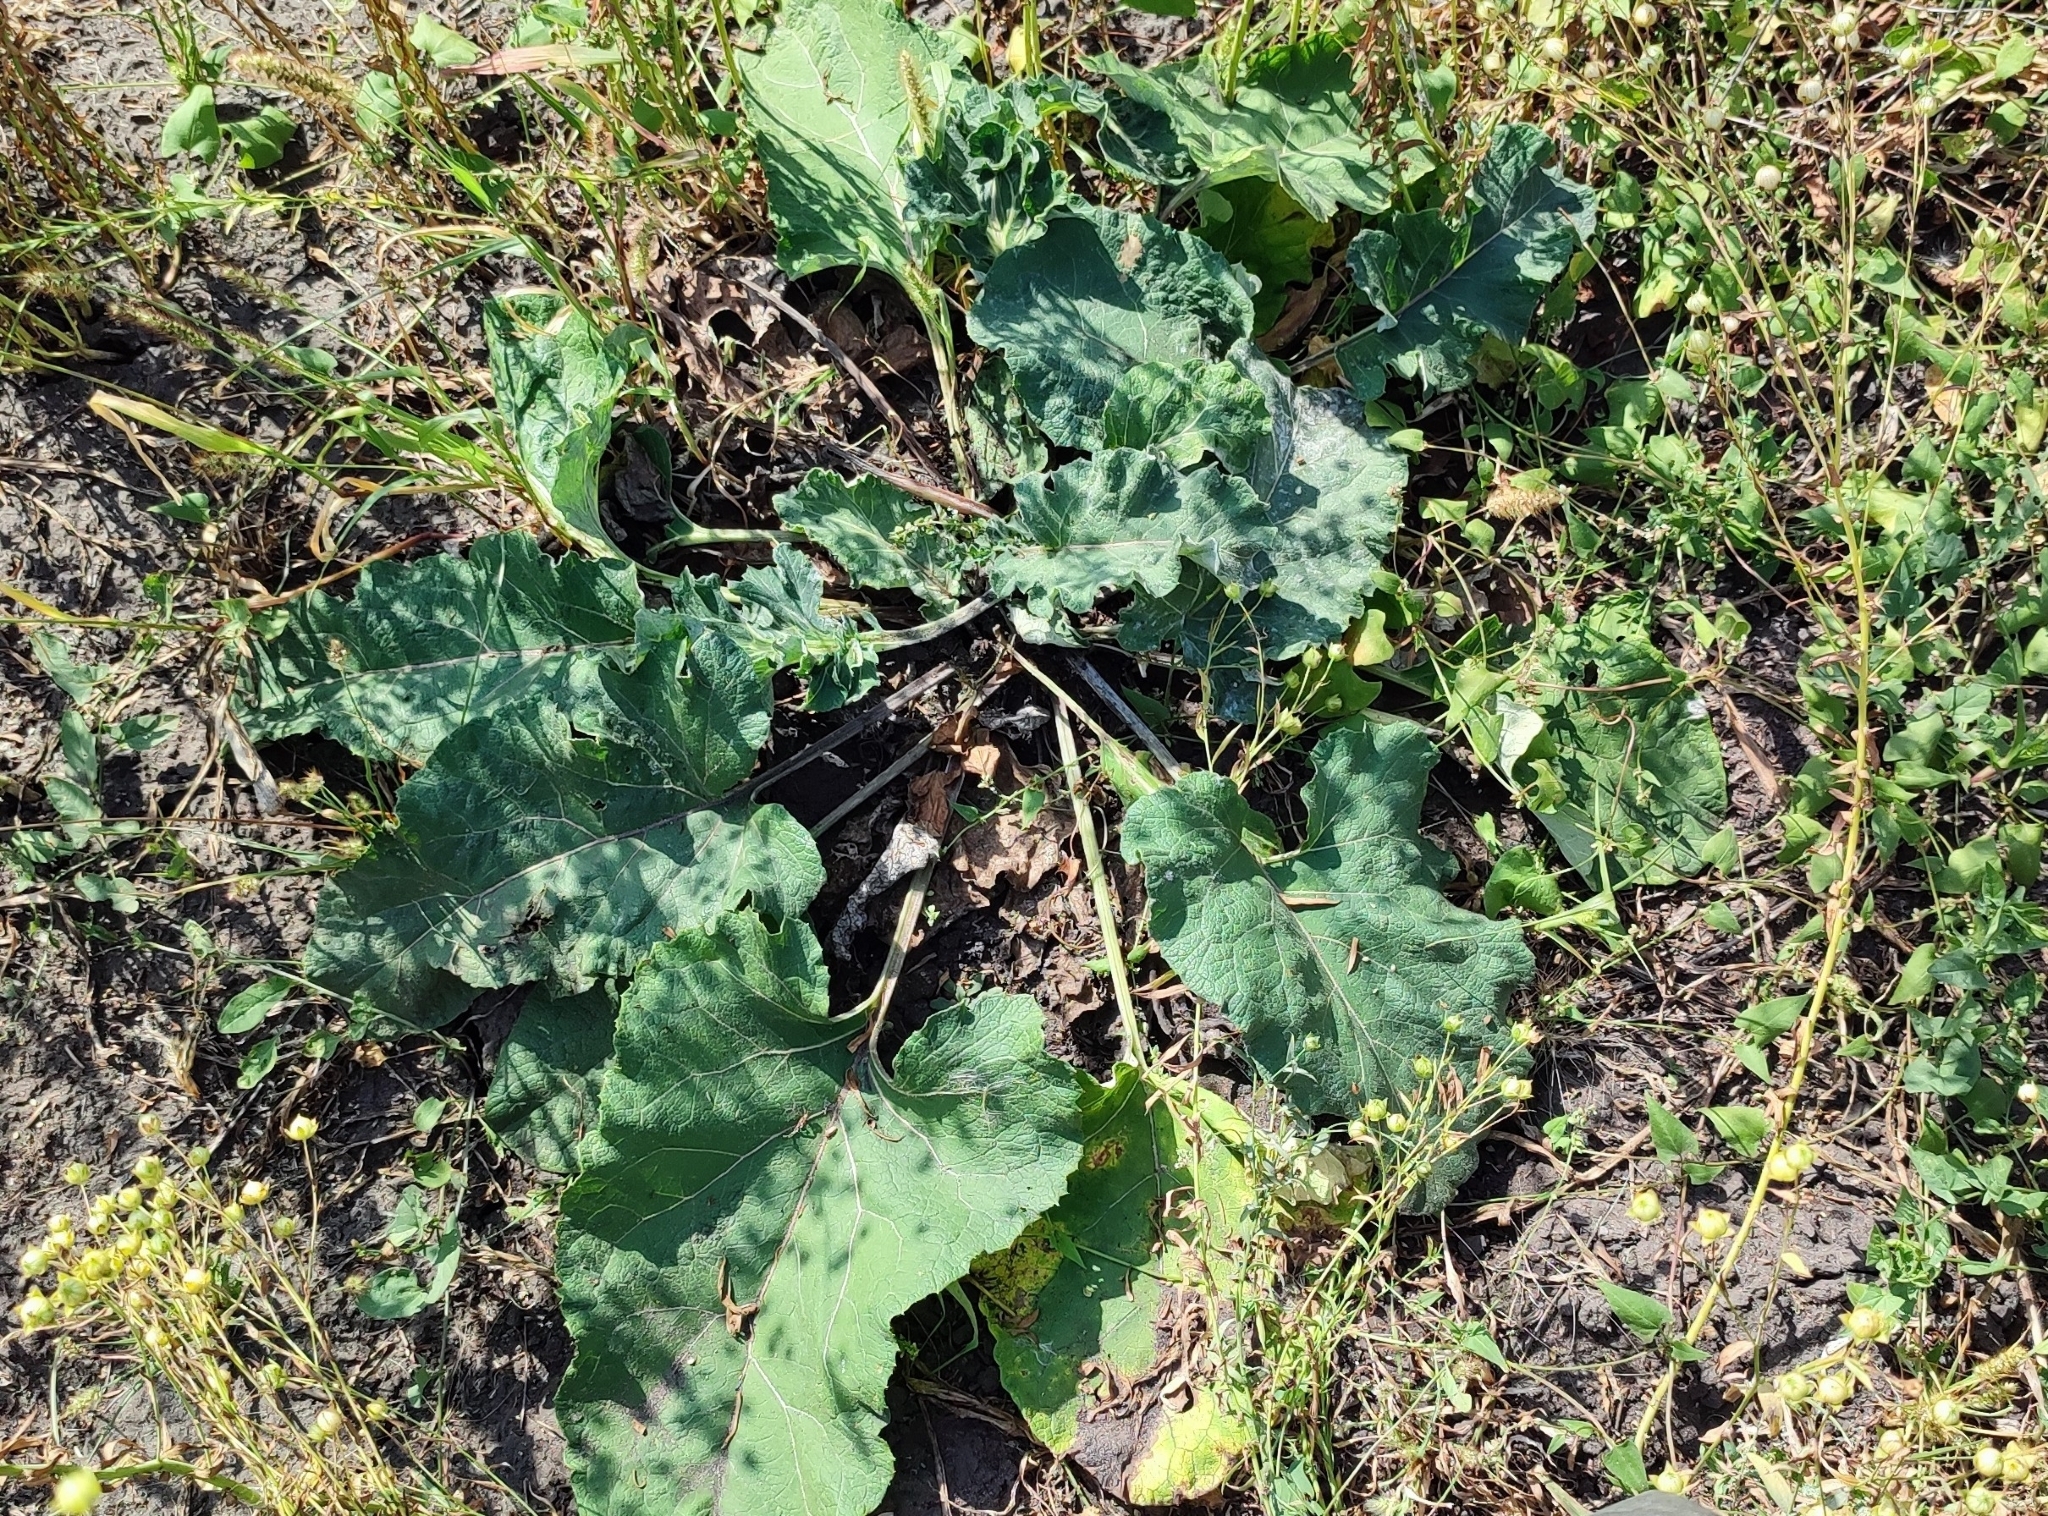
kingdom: Plantae
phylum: Tracheophyta
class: Magnoliopsida
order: Asterales
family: Asteraceae
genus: Arctium
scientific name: Arctium tomentosum
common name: Woolly burdock
